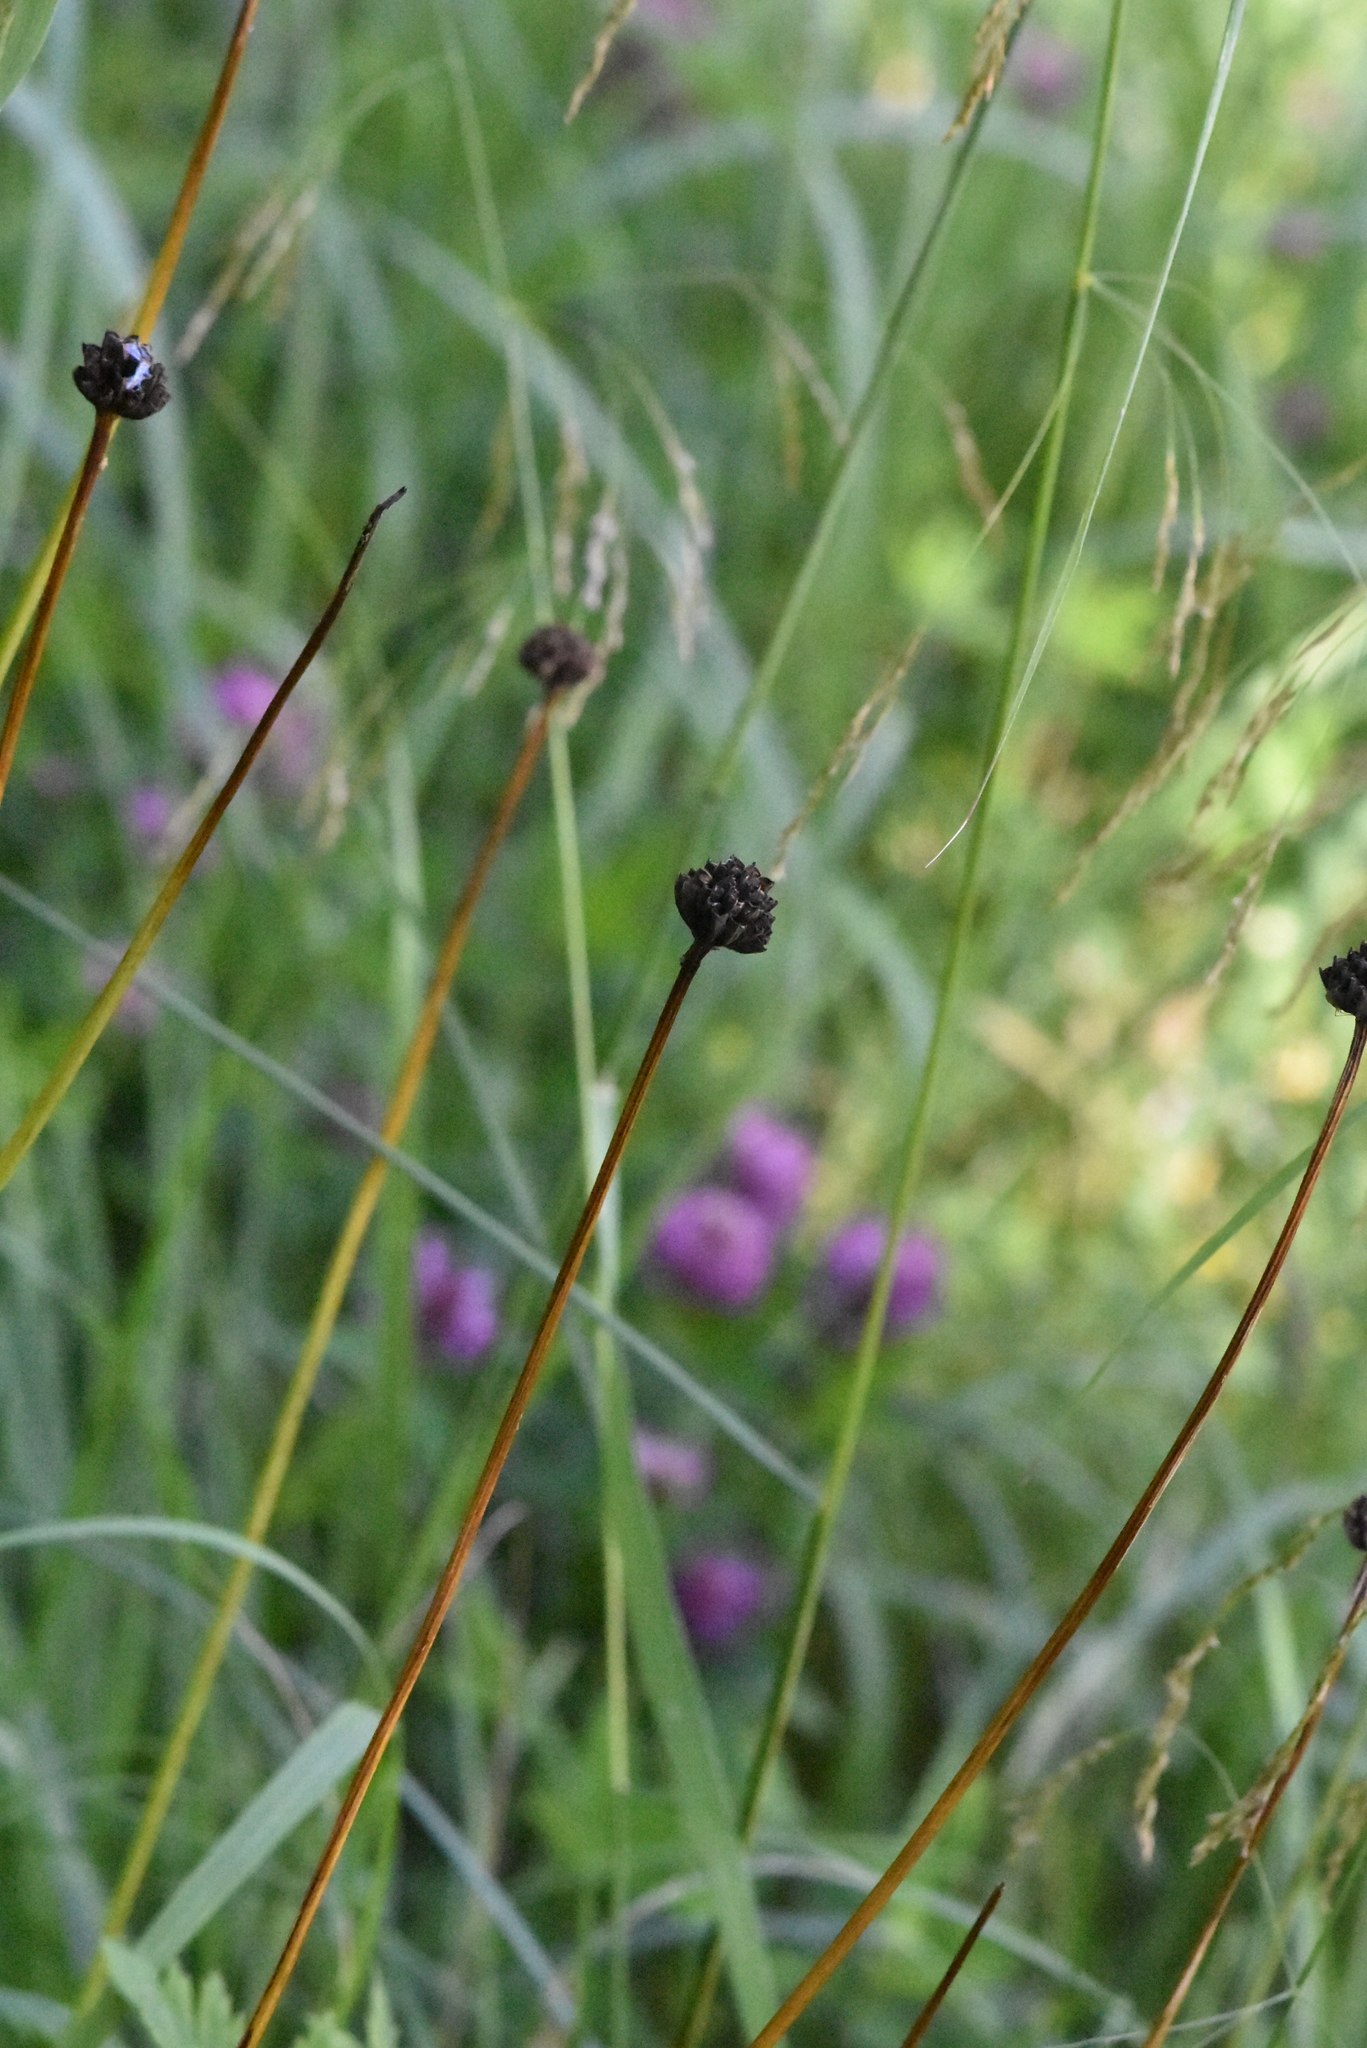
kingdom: Plantae
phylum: Tracheophyta
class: Magnoliopsida
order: Ranunculales
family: Ranunculaceae
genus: Trollius
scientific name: Trollius europaeus
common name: European globeflower
